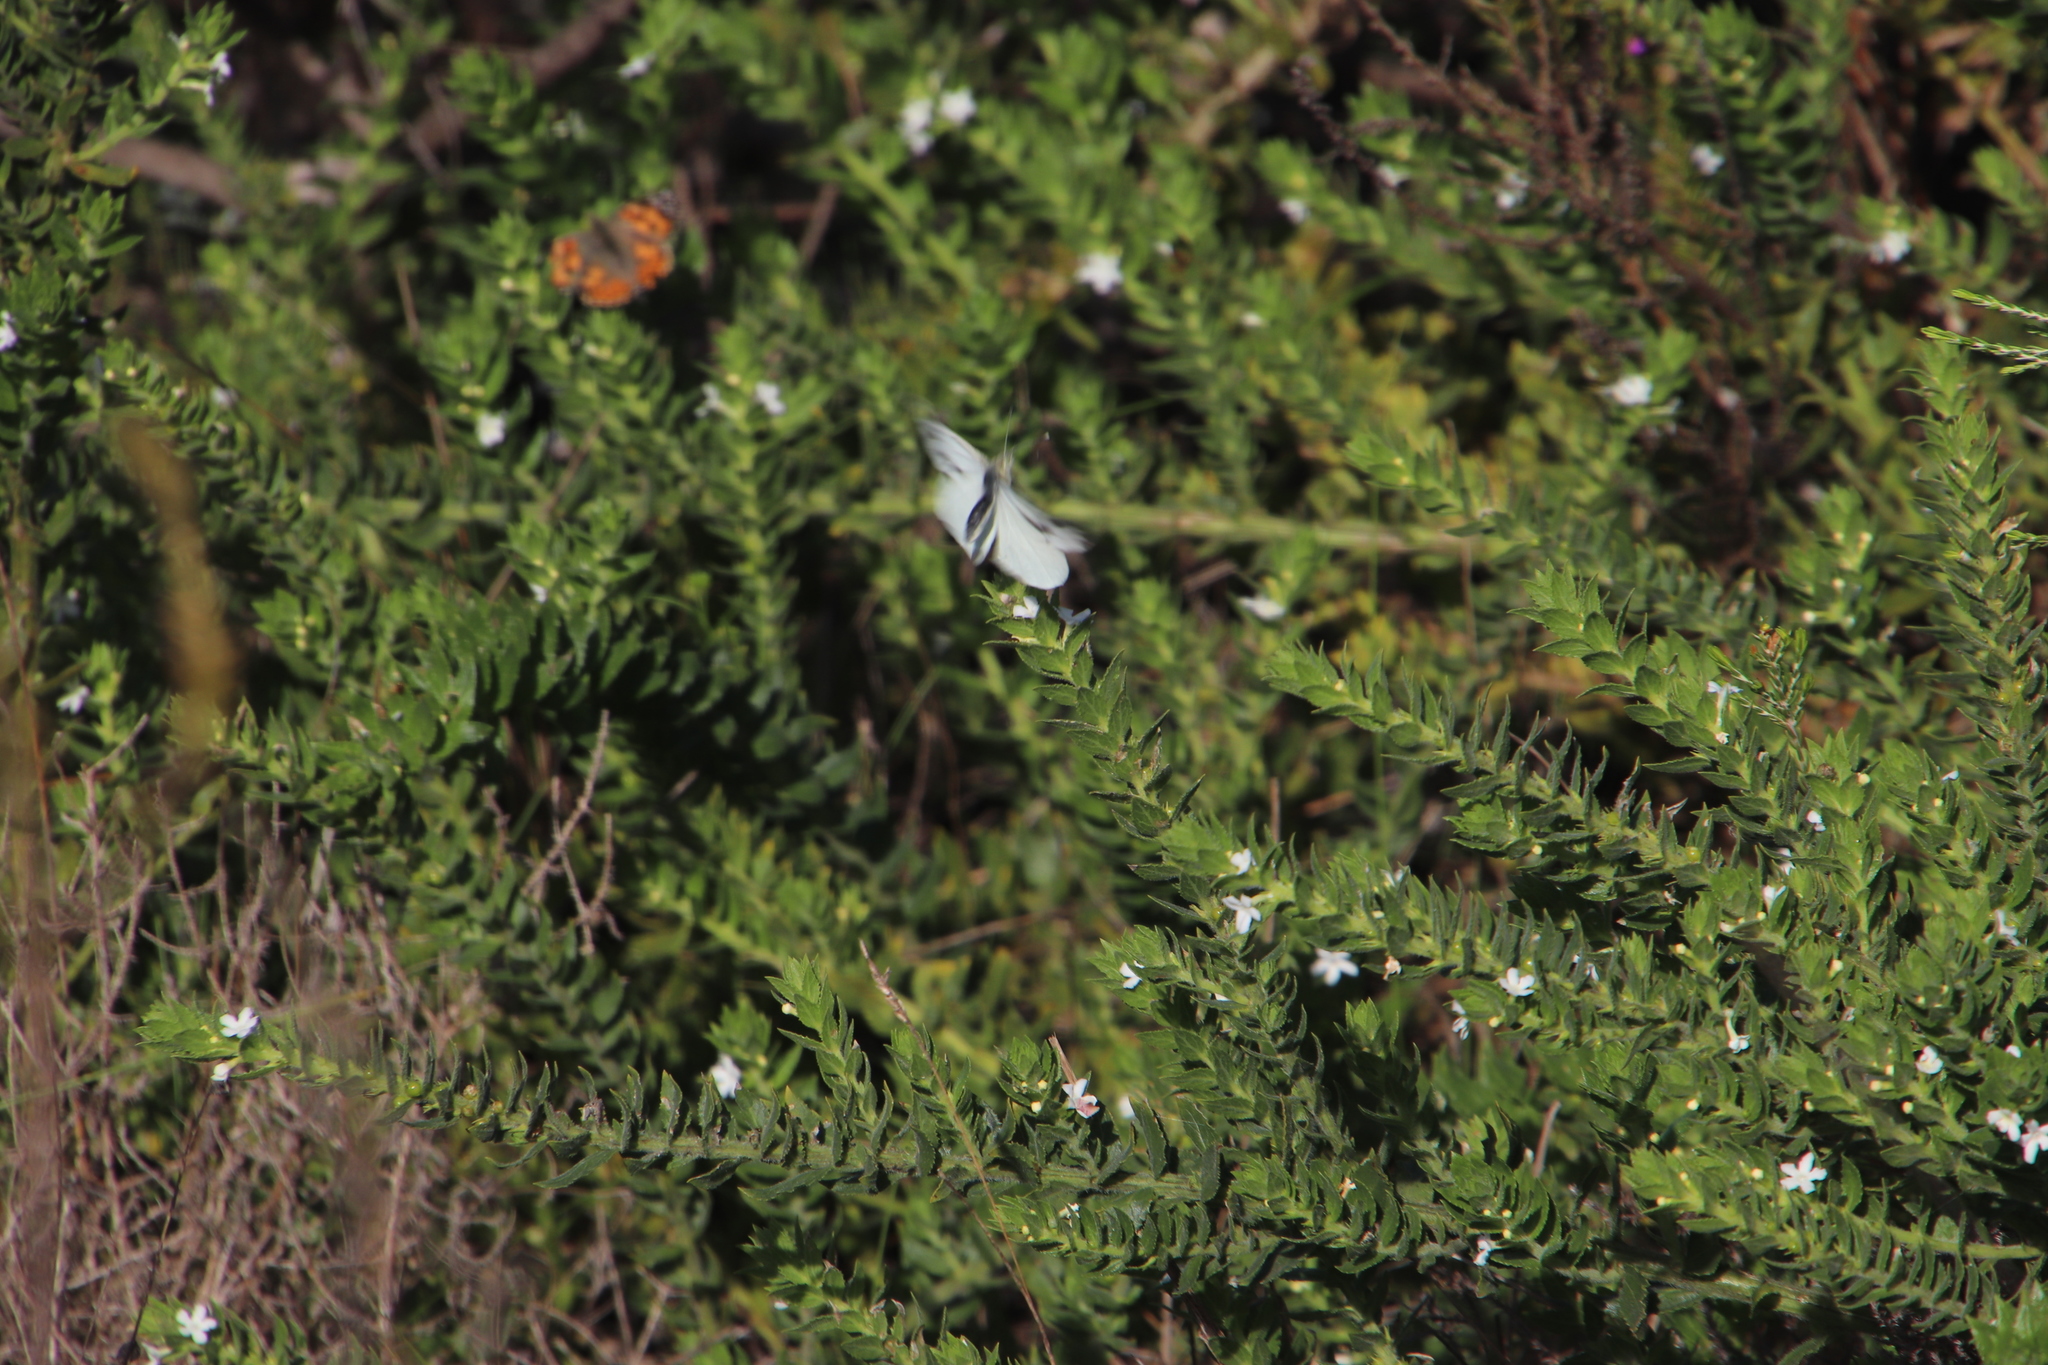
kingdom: Animalia
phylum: Arthropoda
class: Insecta
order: Lepidoptera
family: Pieridae
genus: Pieris
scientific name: Pieris brassicae
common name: Large white
